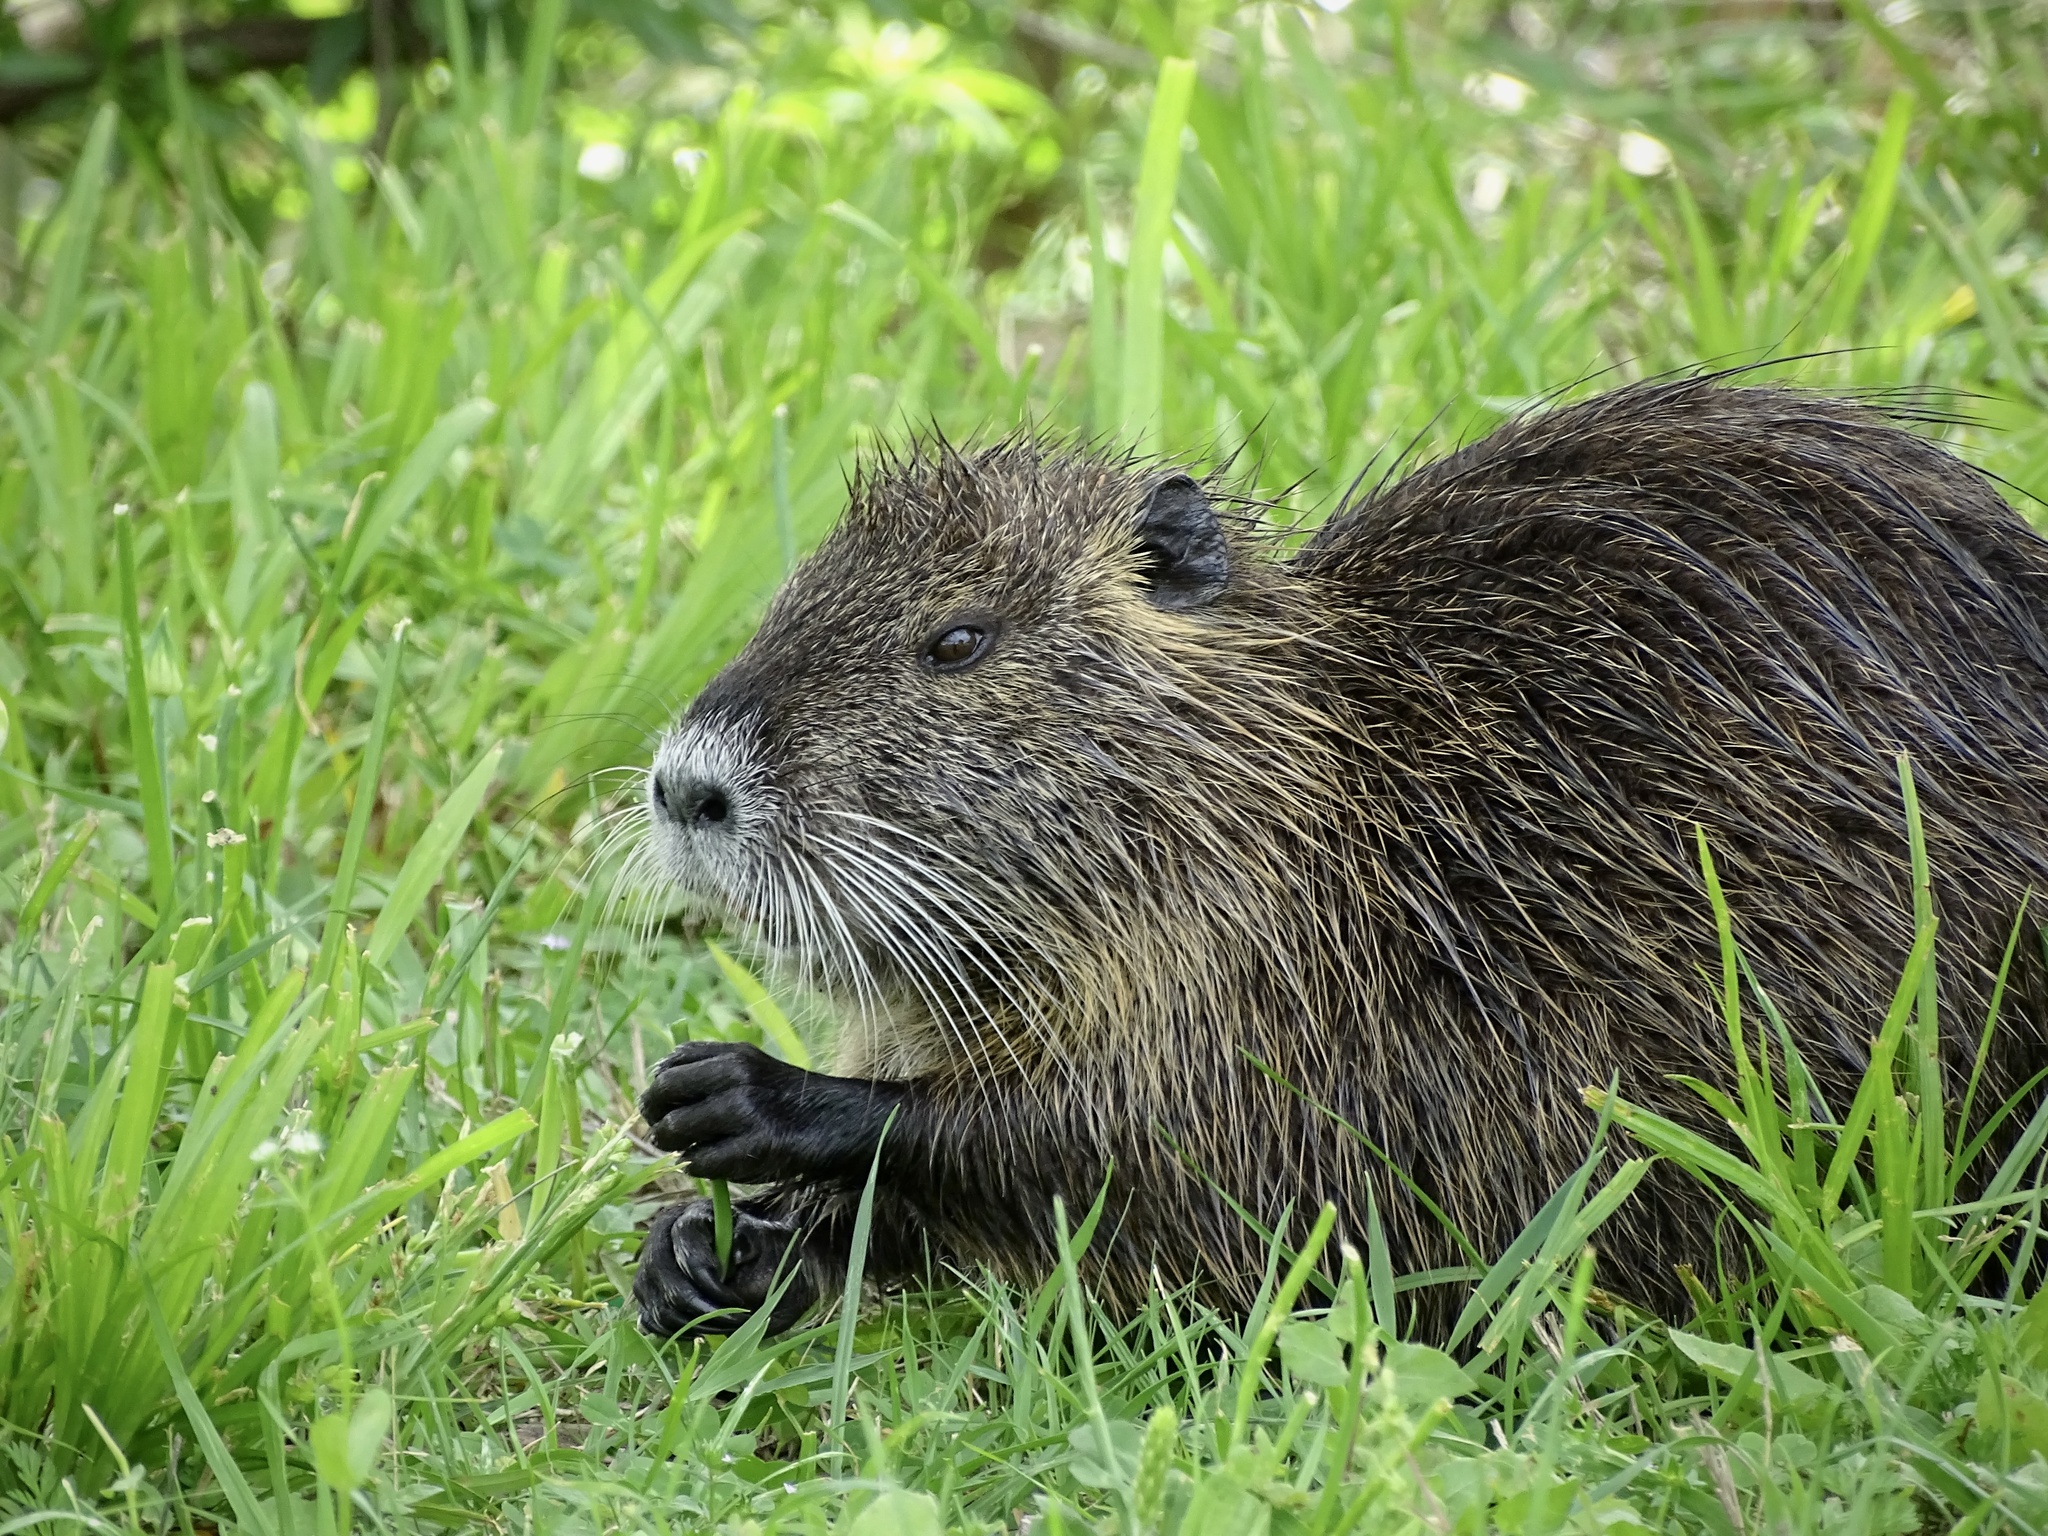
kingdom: Animalia
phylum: Chordata
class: Mammalia
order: Rodentia
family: Myocastoridae
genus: Myocastor
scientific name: Myocastor coypus
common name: Coypu
